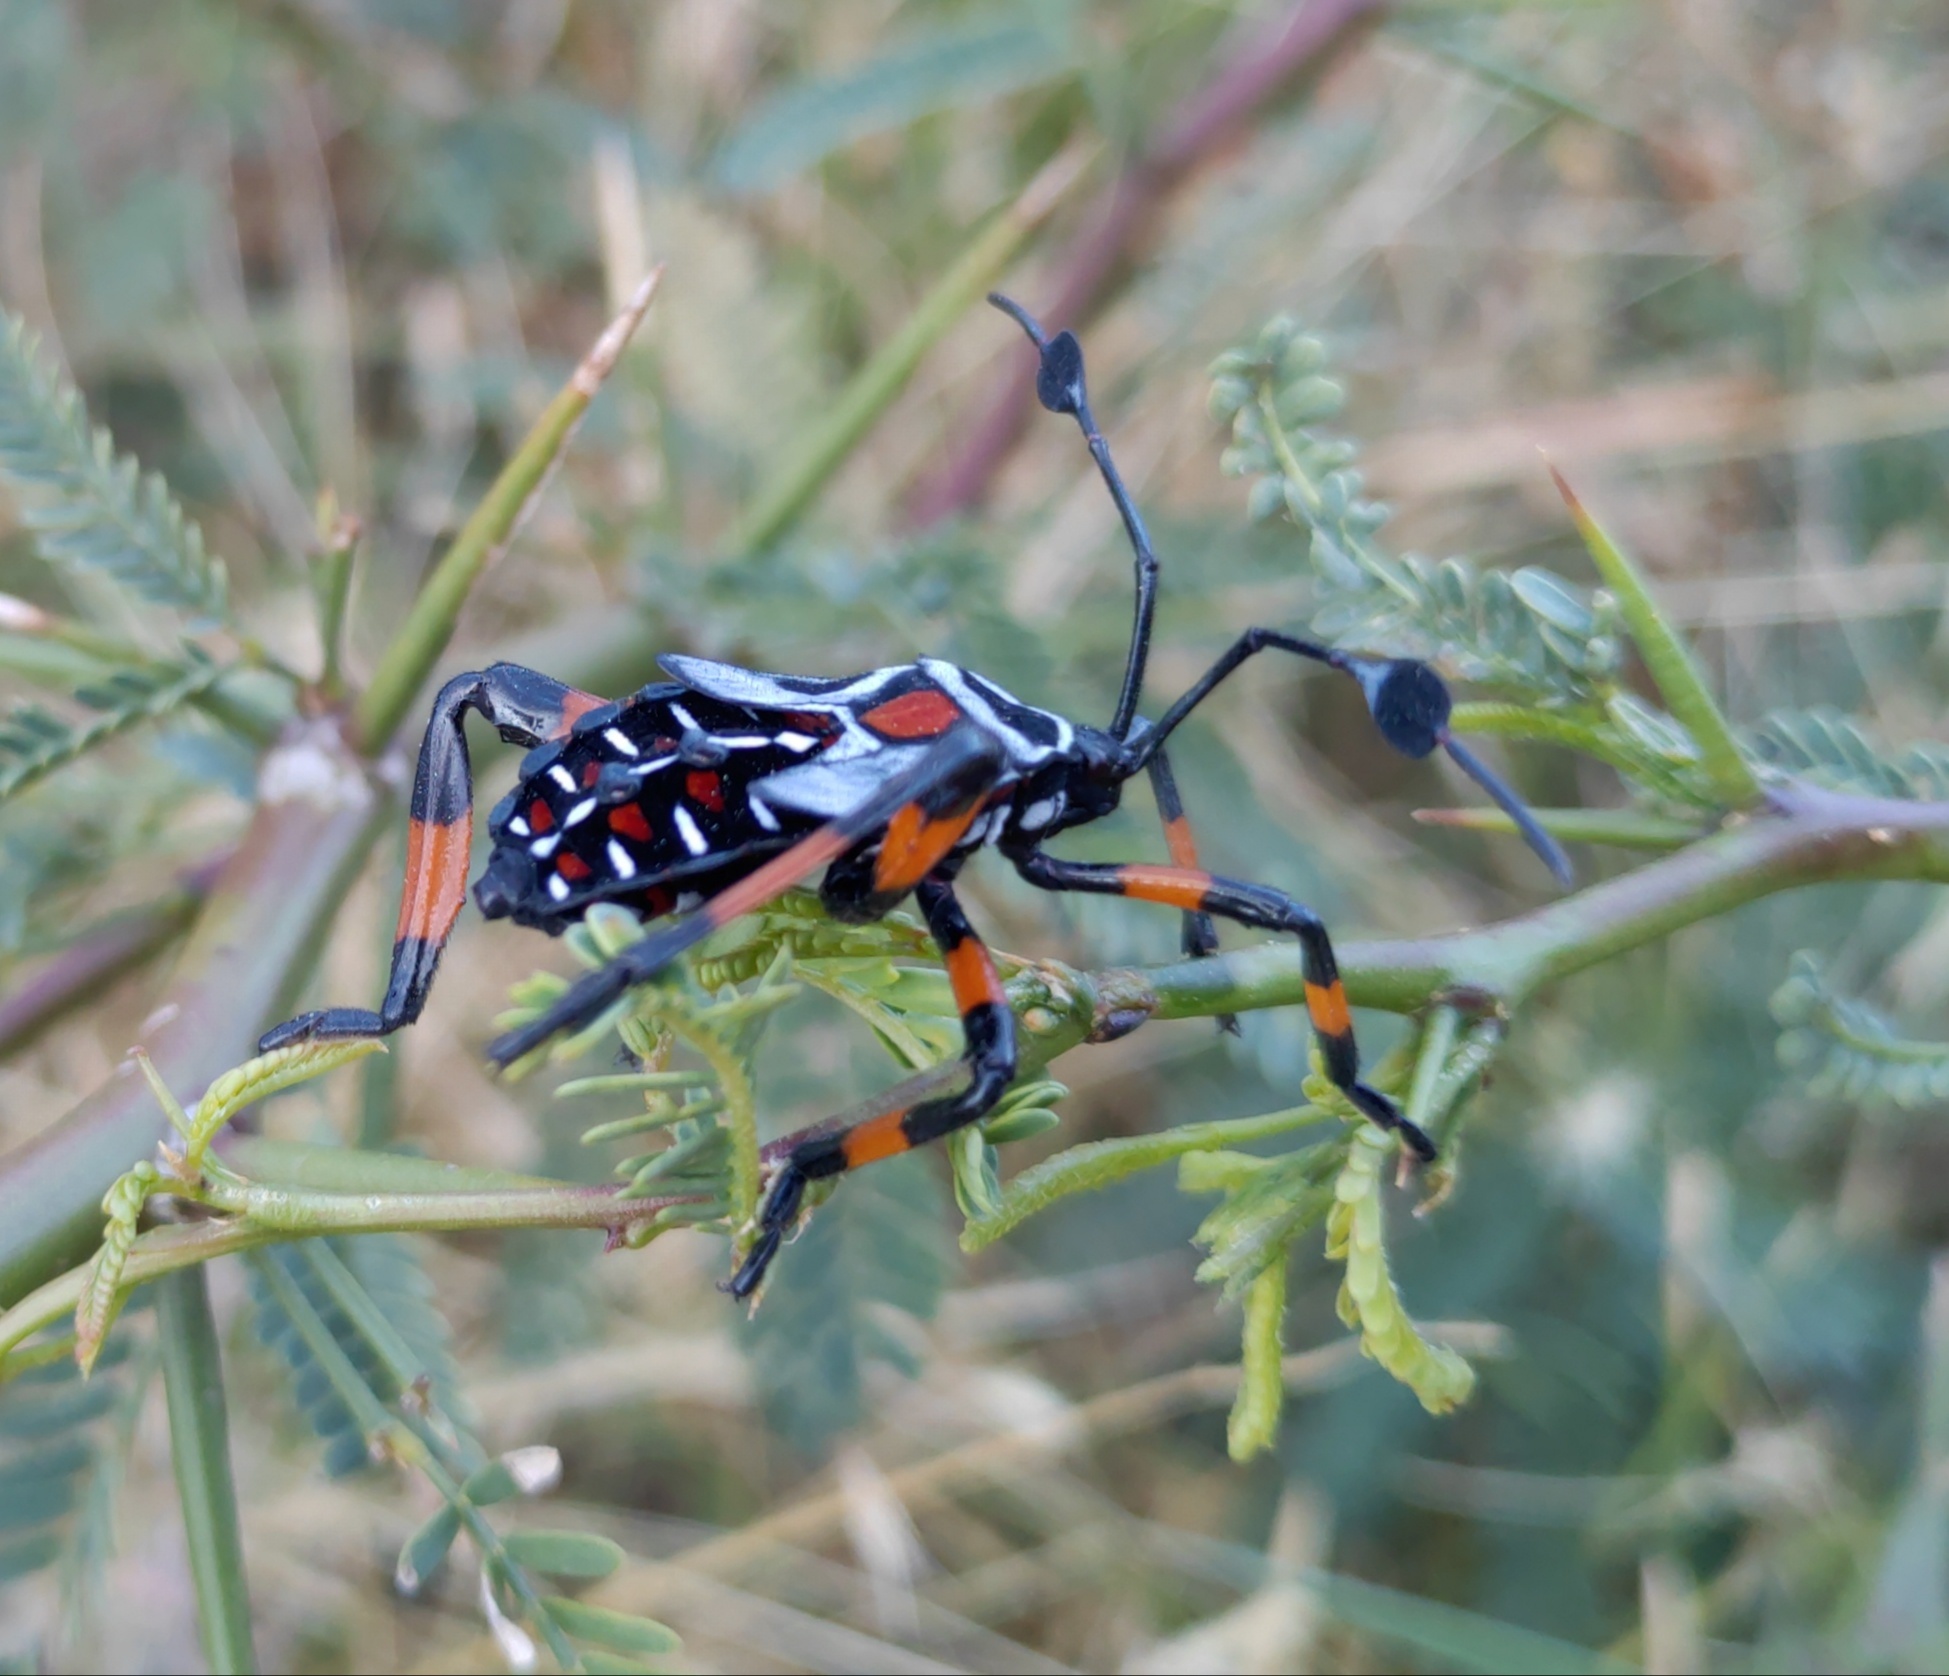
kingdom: Animalia
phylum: Arthropoda
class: Insecta
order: Hemiptera
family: Coreidae
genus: Thasus
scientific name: Thasus
